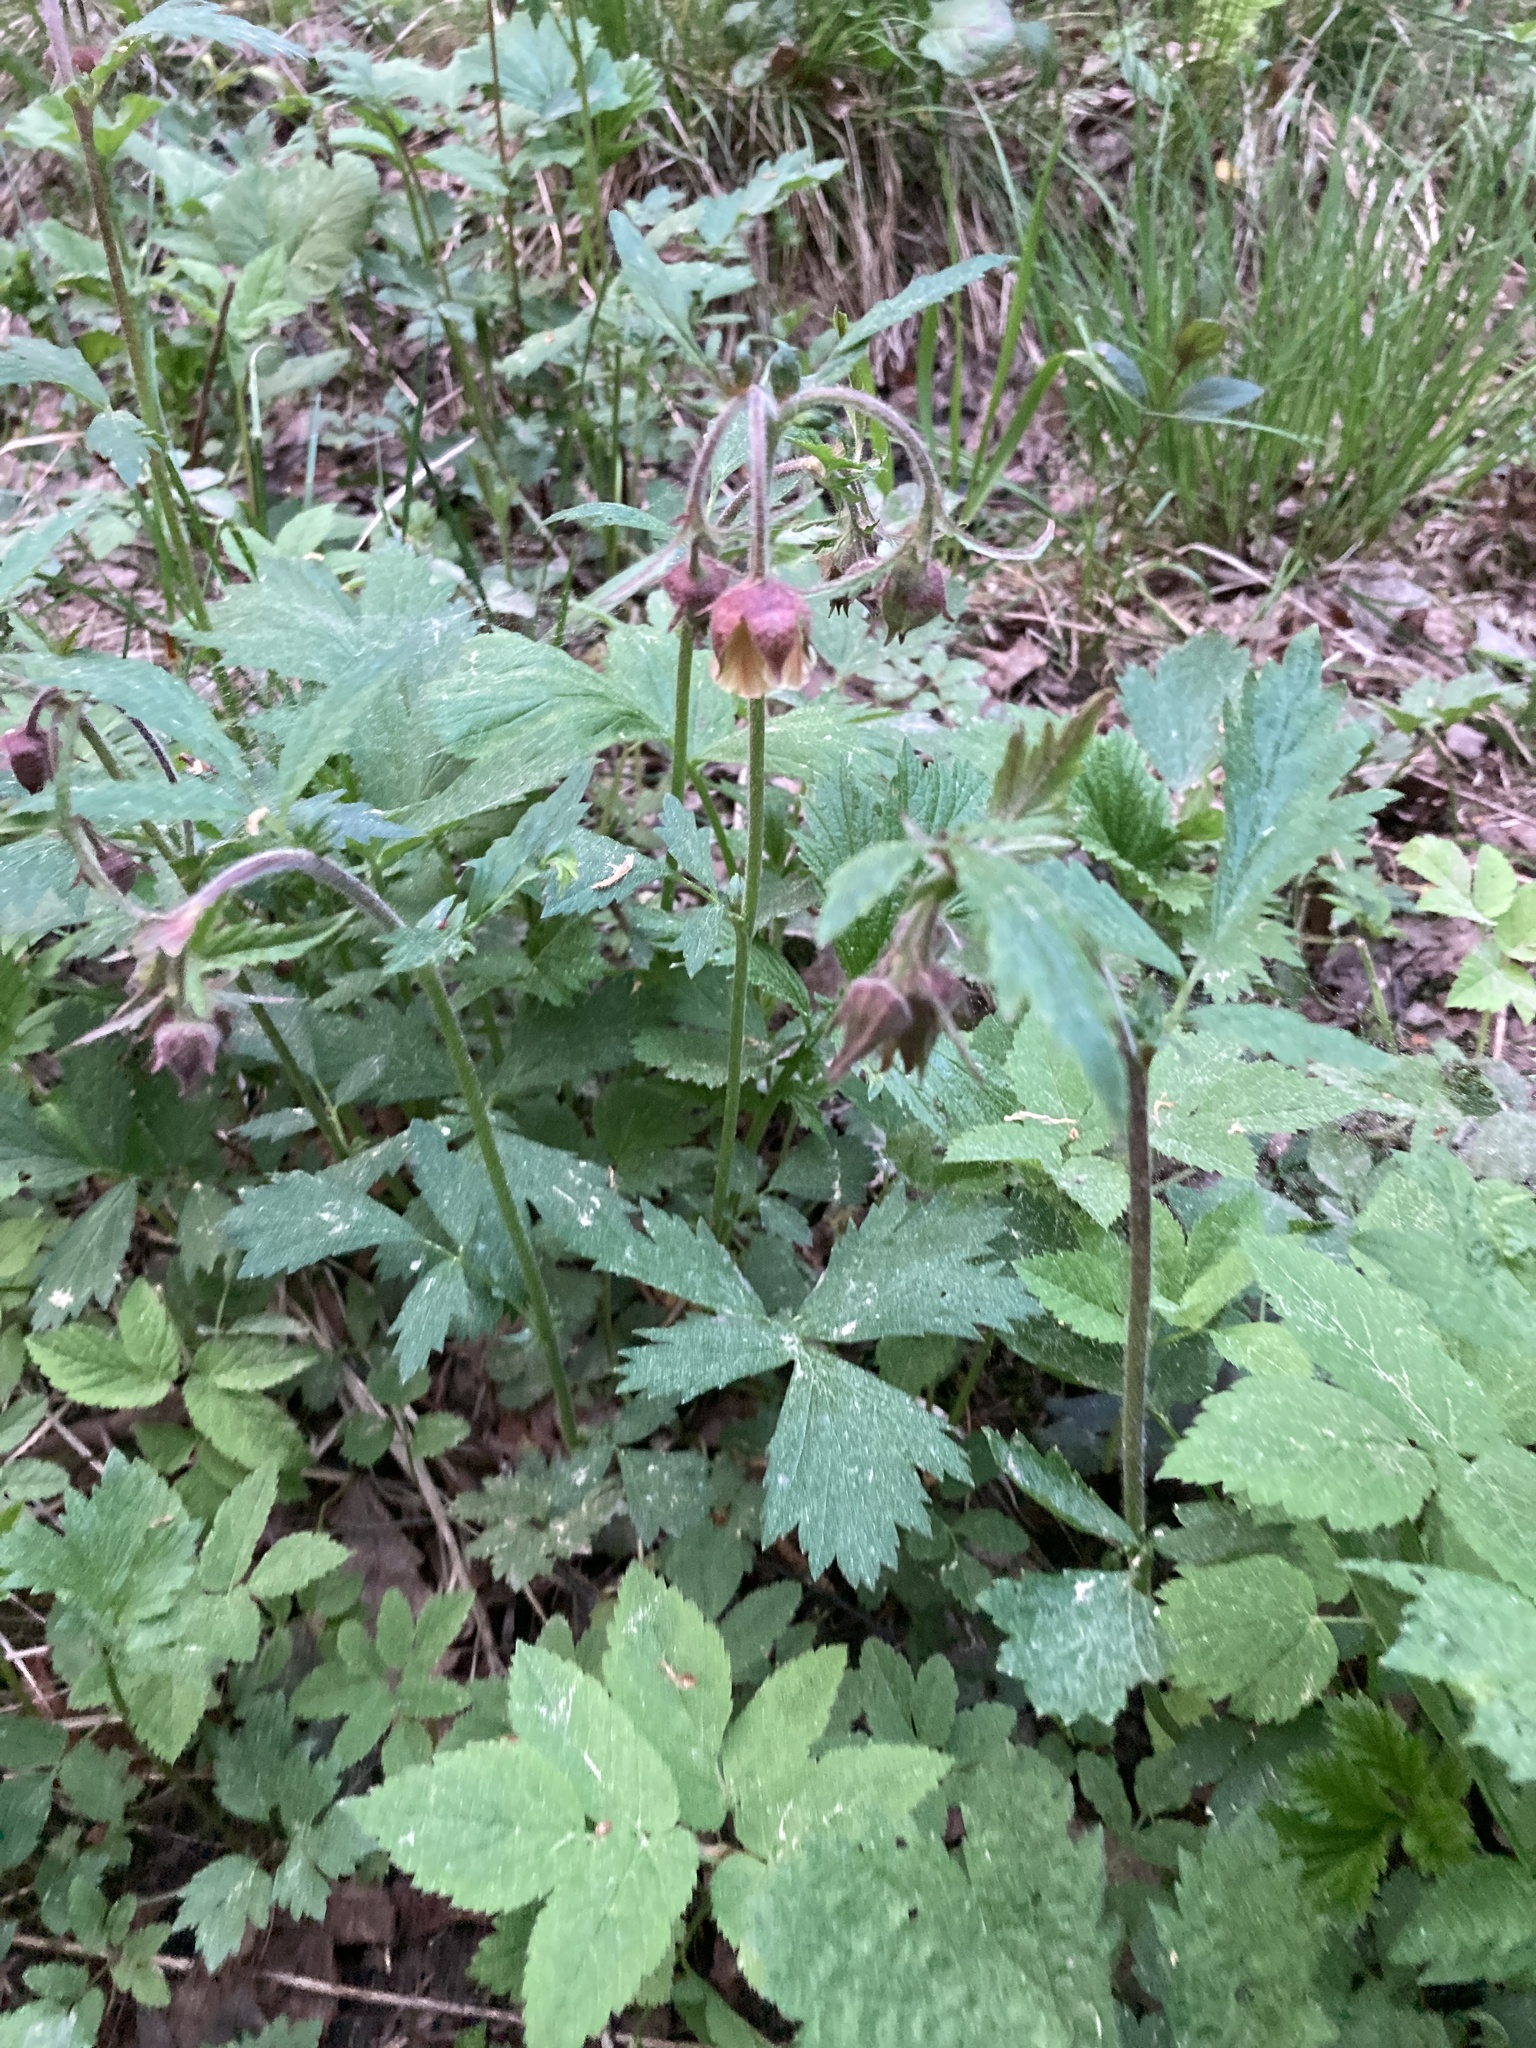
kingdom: Plantae
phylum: Tracheophyta
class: Magnoliopsida
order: Rosales
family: Rosaceae
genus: Geum
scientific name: Geum rivale
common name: Water avens
